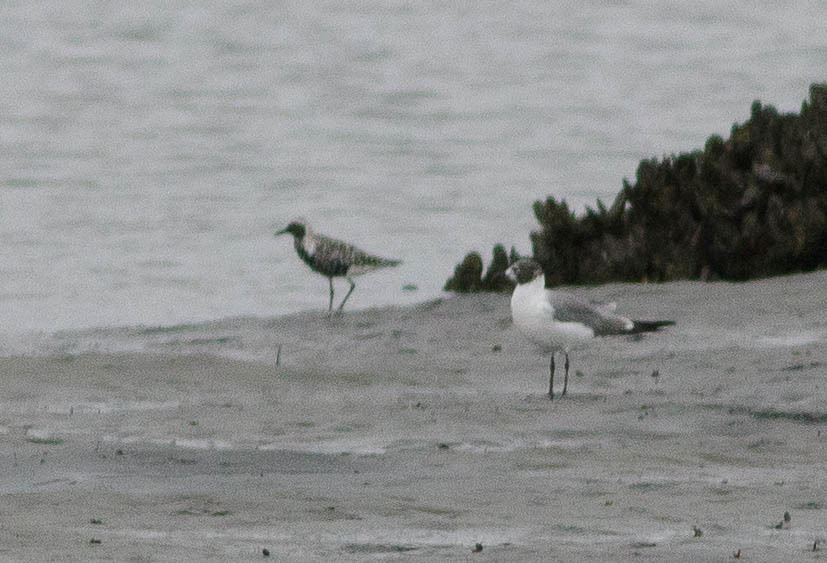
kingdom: Animalia
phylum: Chordata
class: Aves
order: Charadriiformes
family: Charadriidae
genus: Pluvialis
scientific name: Pluvialis squatarola
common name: Grey plover
